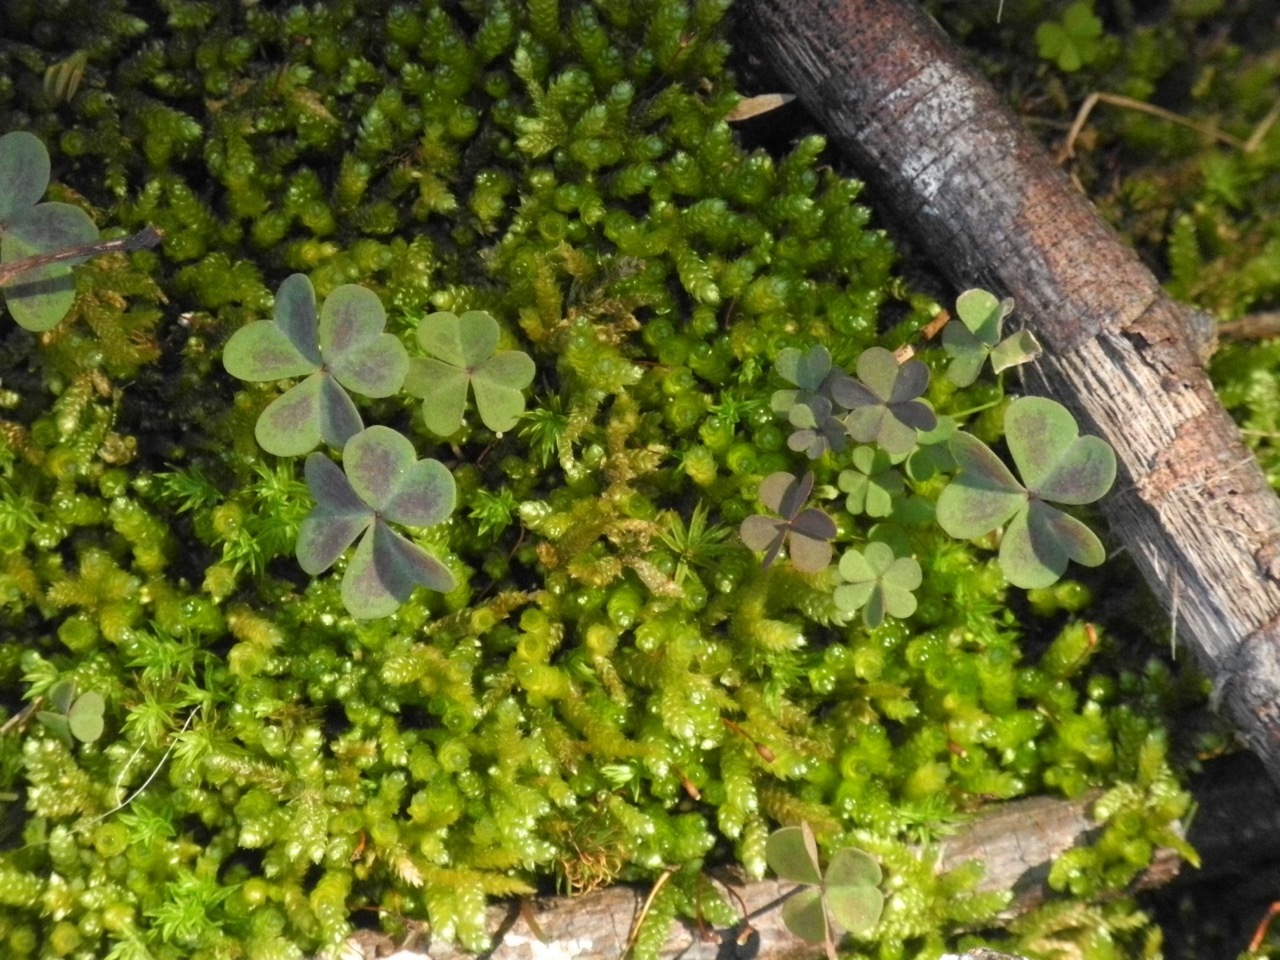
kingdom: Plantae
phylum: Tracheophyta
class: Magnoliopsida
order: Oxalidales
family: Oxalidaceae
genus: Oxalis
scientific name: Oxalis violacea
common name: Violet wood-sorrel
